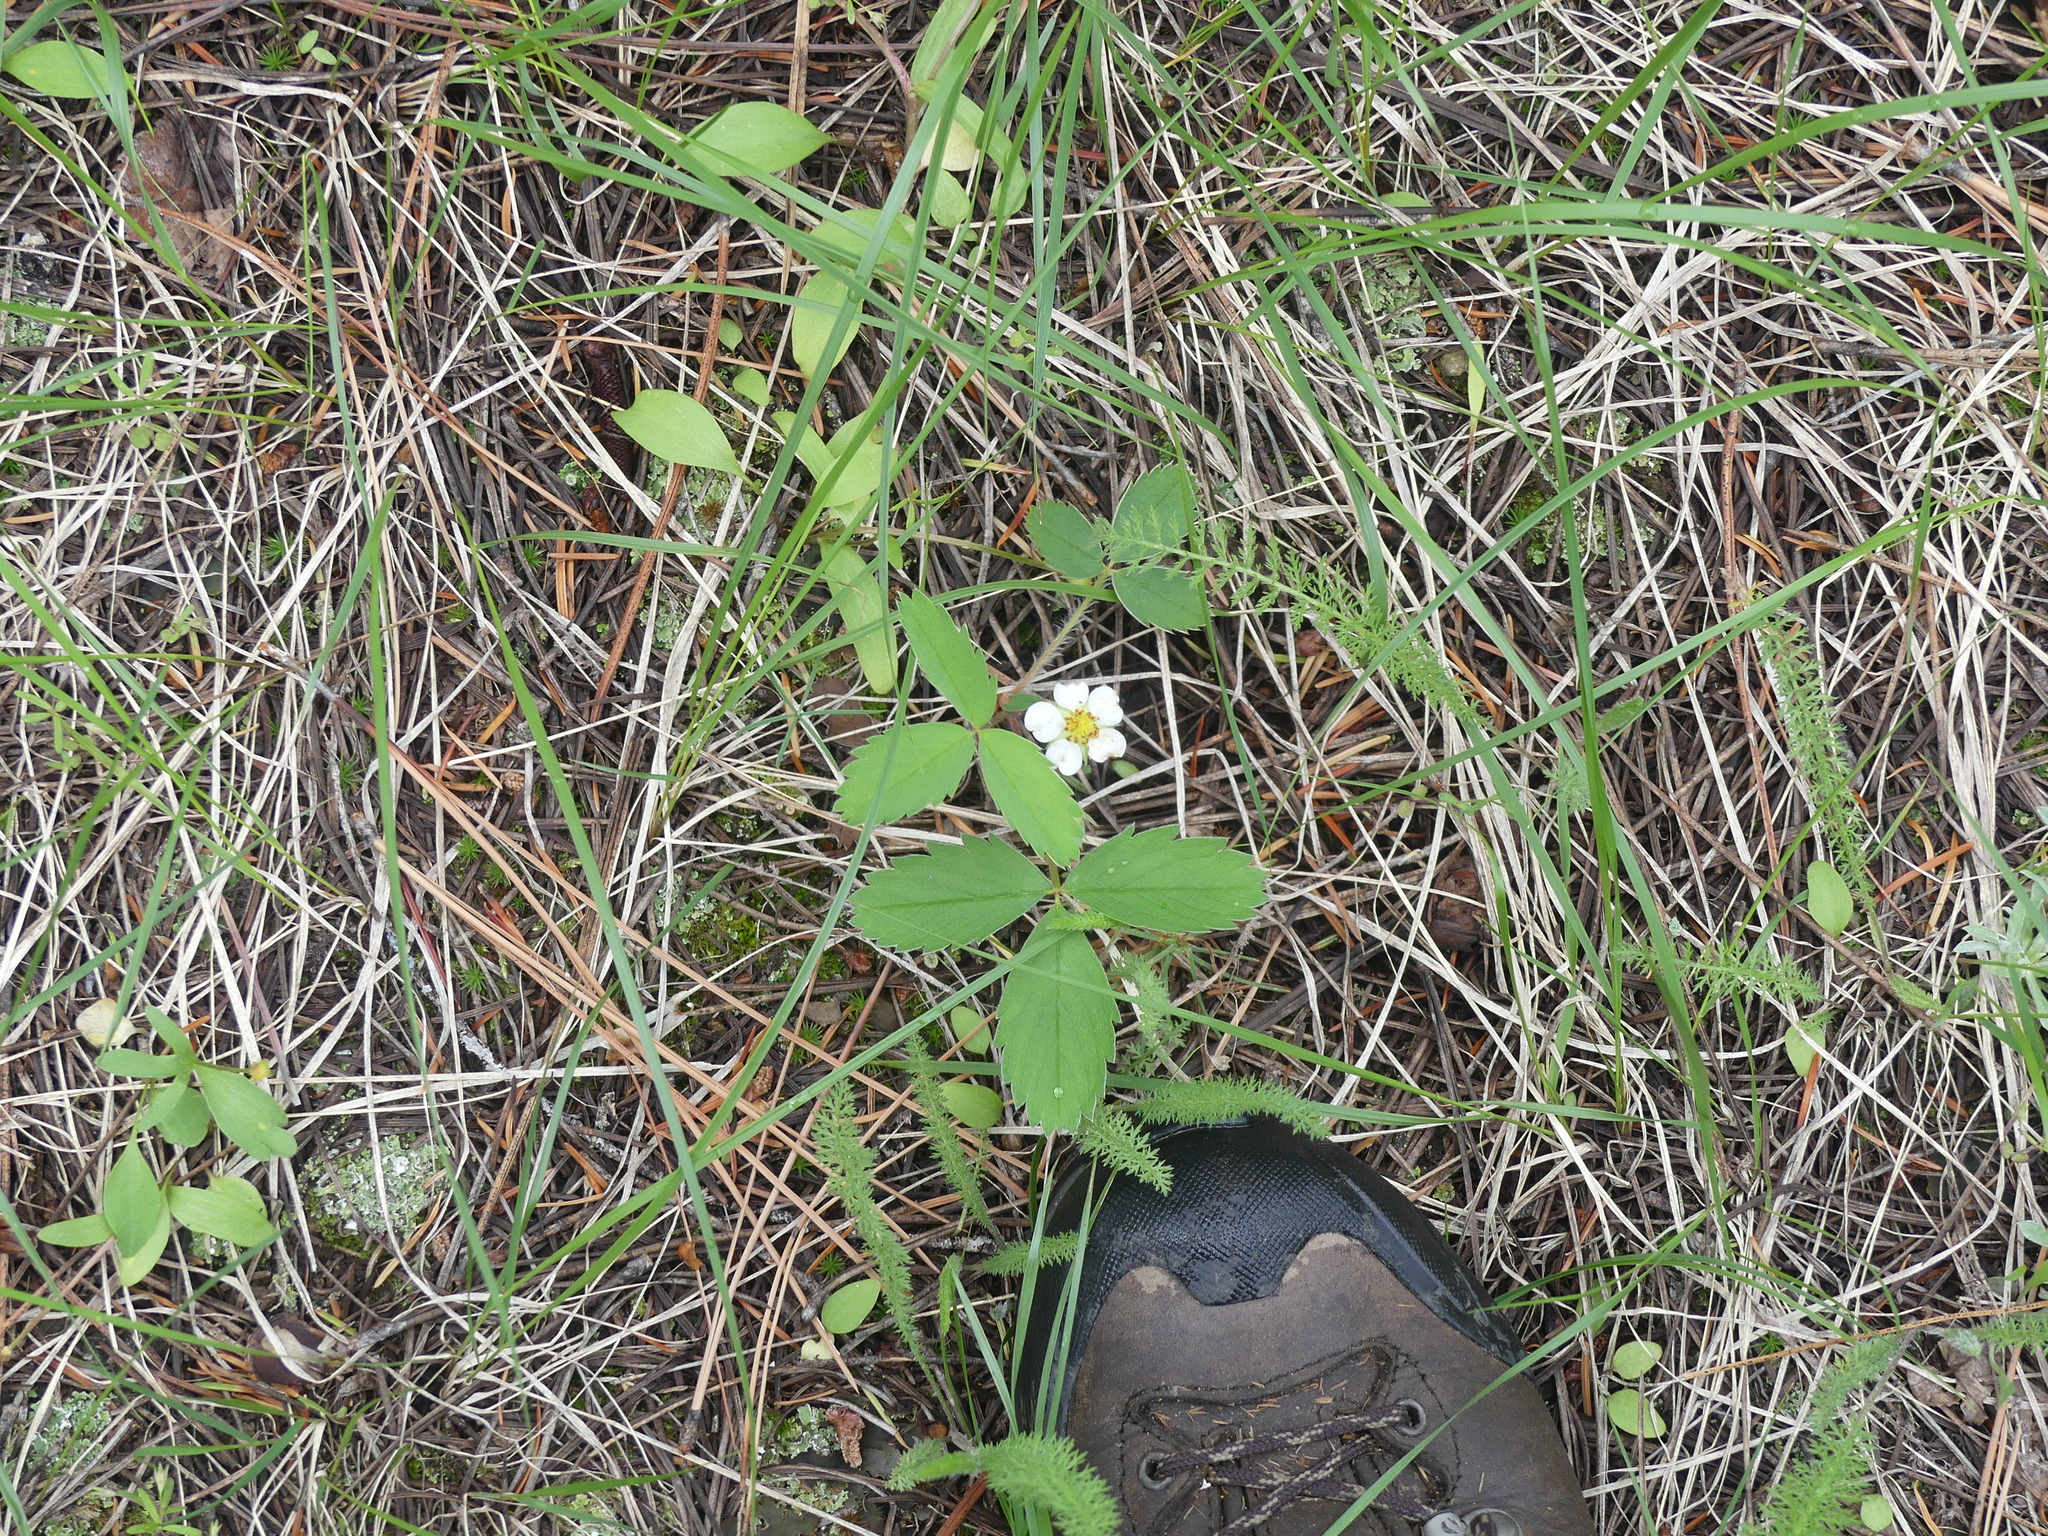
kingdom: Plantae
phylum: Tracheophyta
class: Magnoliopsida
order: Rosales
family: Rosaceae
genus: Fragaria
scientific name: Fragaria virginiana
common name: Thickleaved wild strawberry
